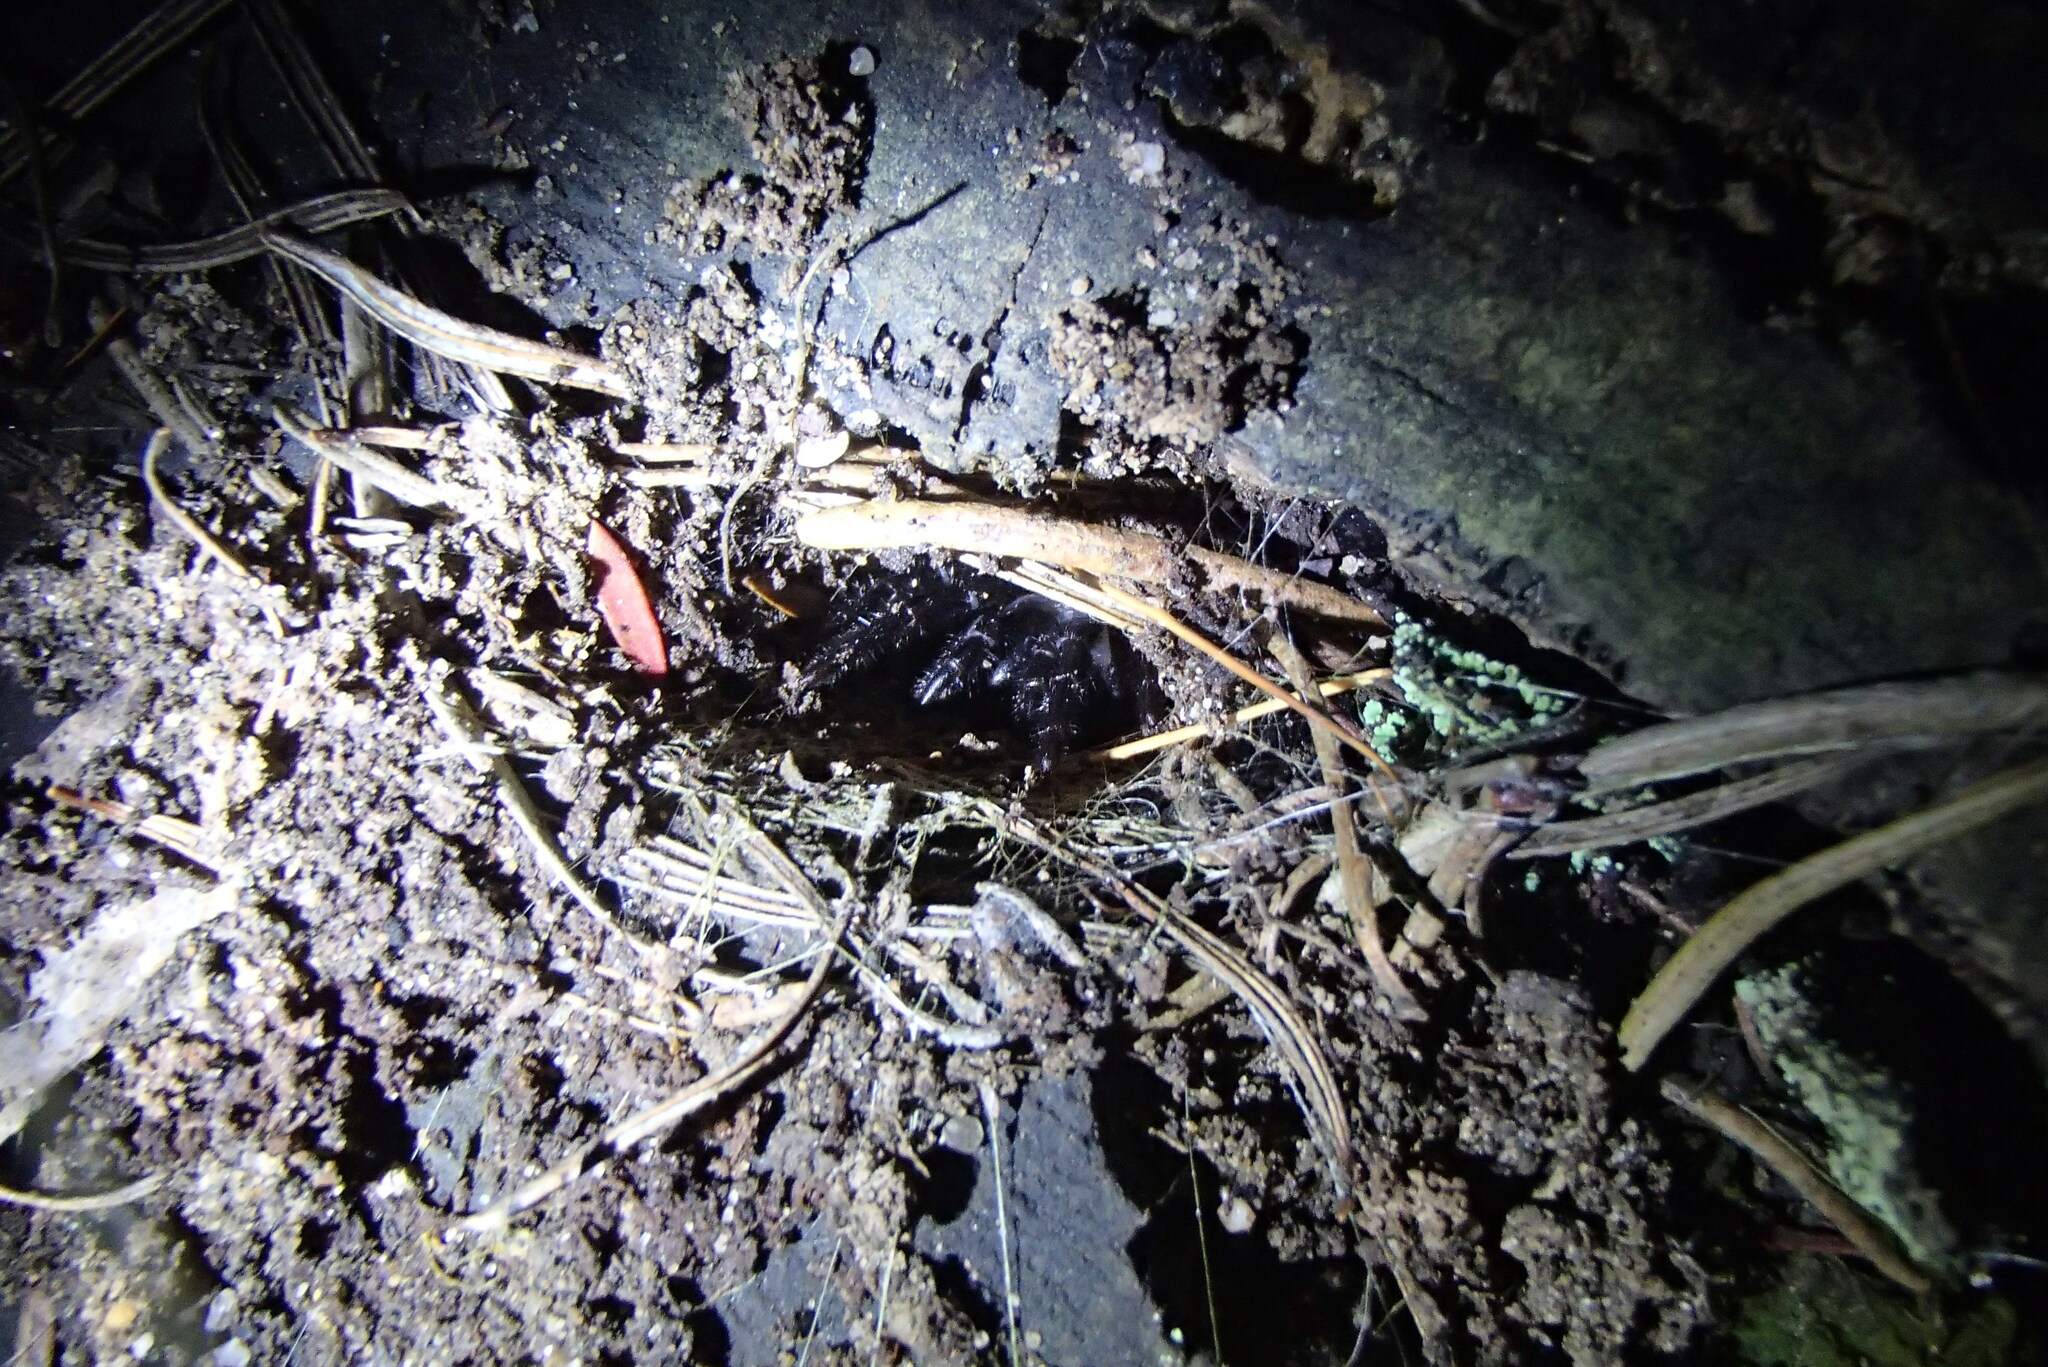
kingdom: Animalia
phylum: Arthropoda
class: Arachnida
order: Araneae
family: Atracidae
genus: Hadronyche
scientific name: Hadronyche versuta
